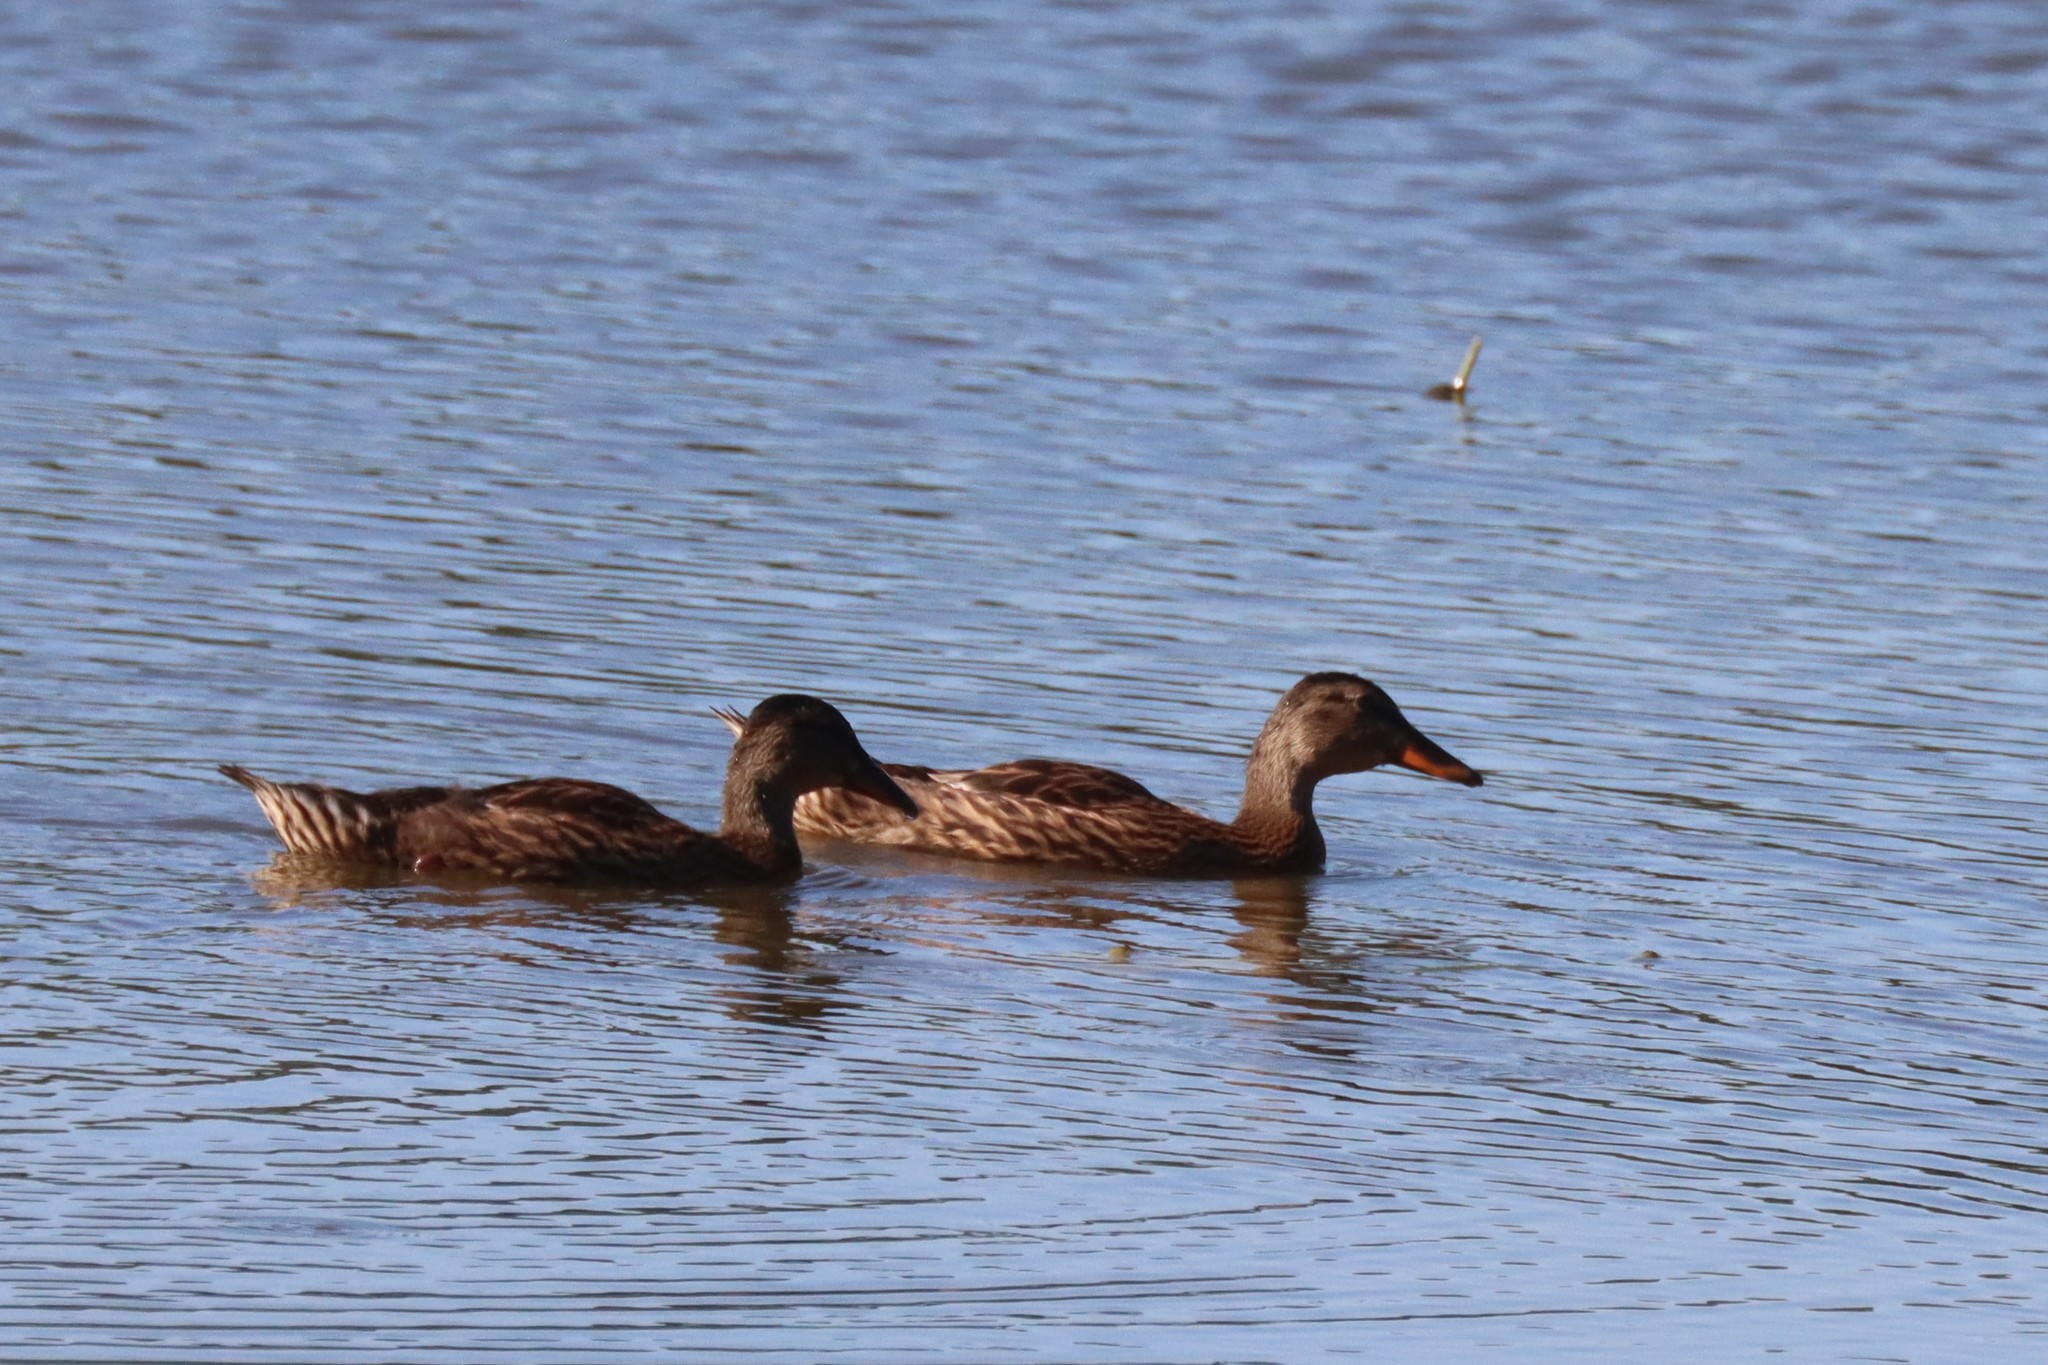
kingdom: Animalia
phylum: Chordata
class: Aves
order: Anseriformes
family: Anatidae
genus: Anas
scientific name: Anas platyrhynchos
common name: Mallard
